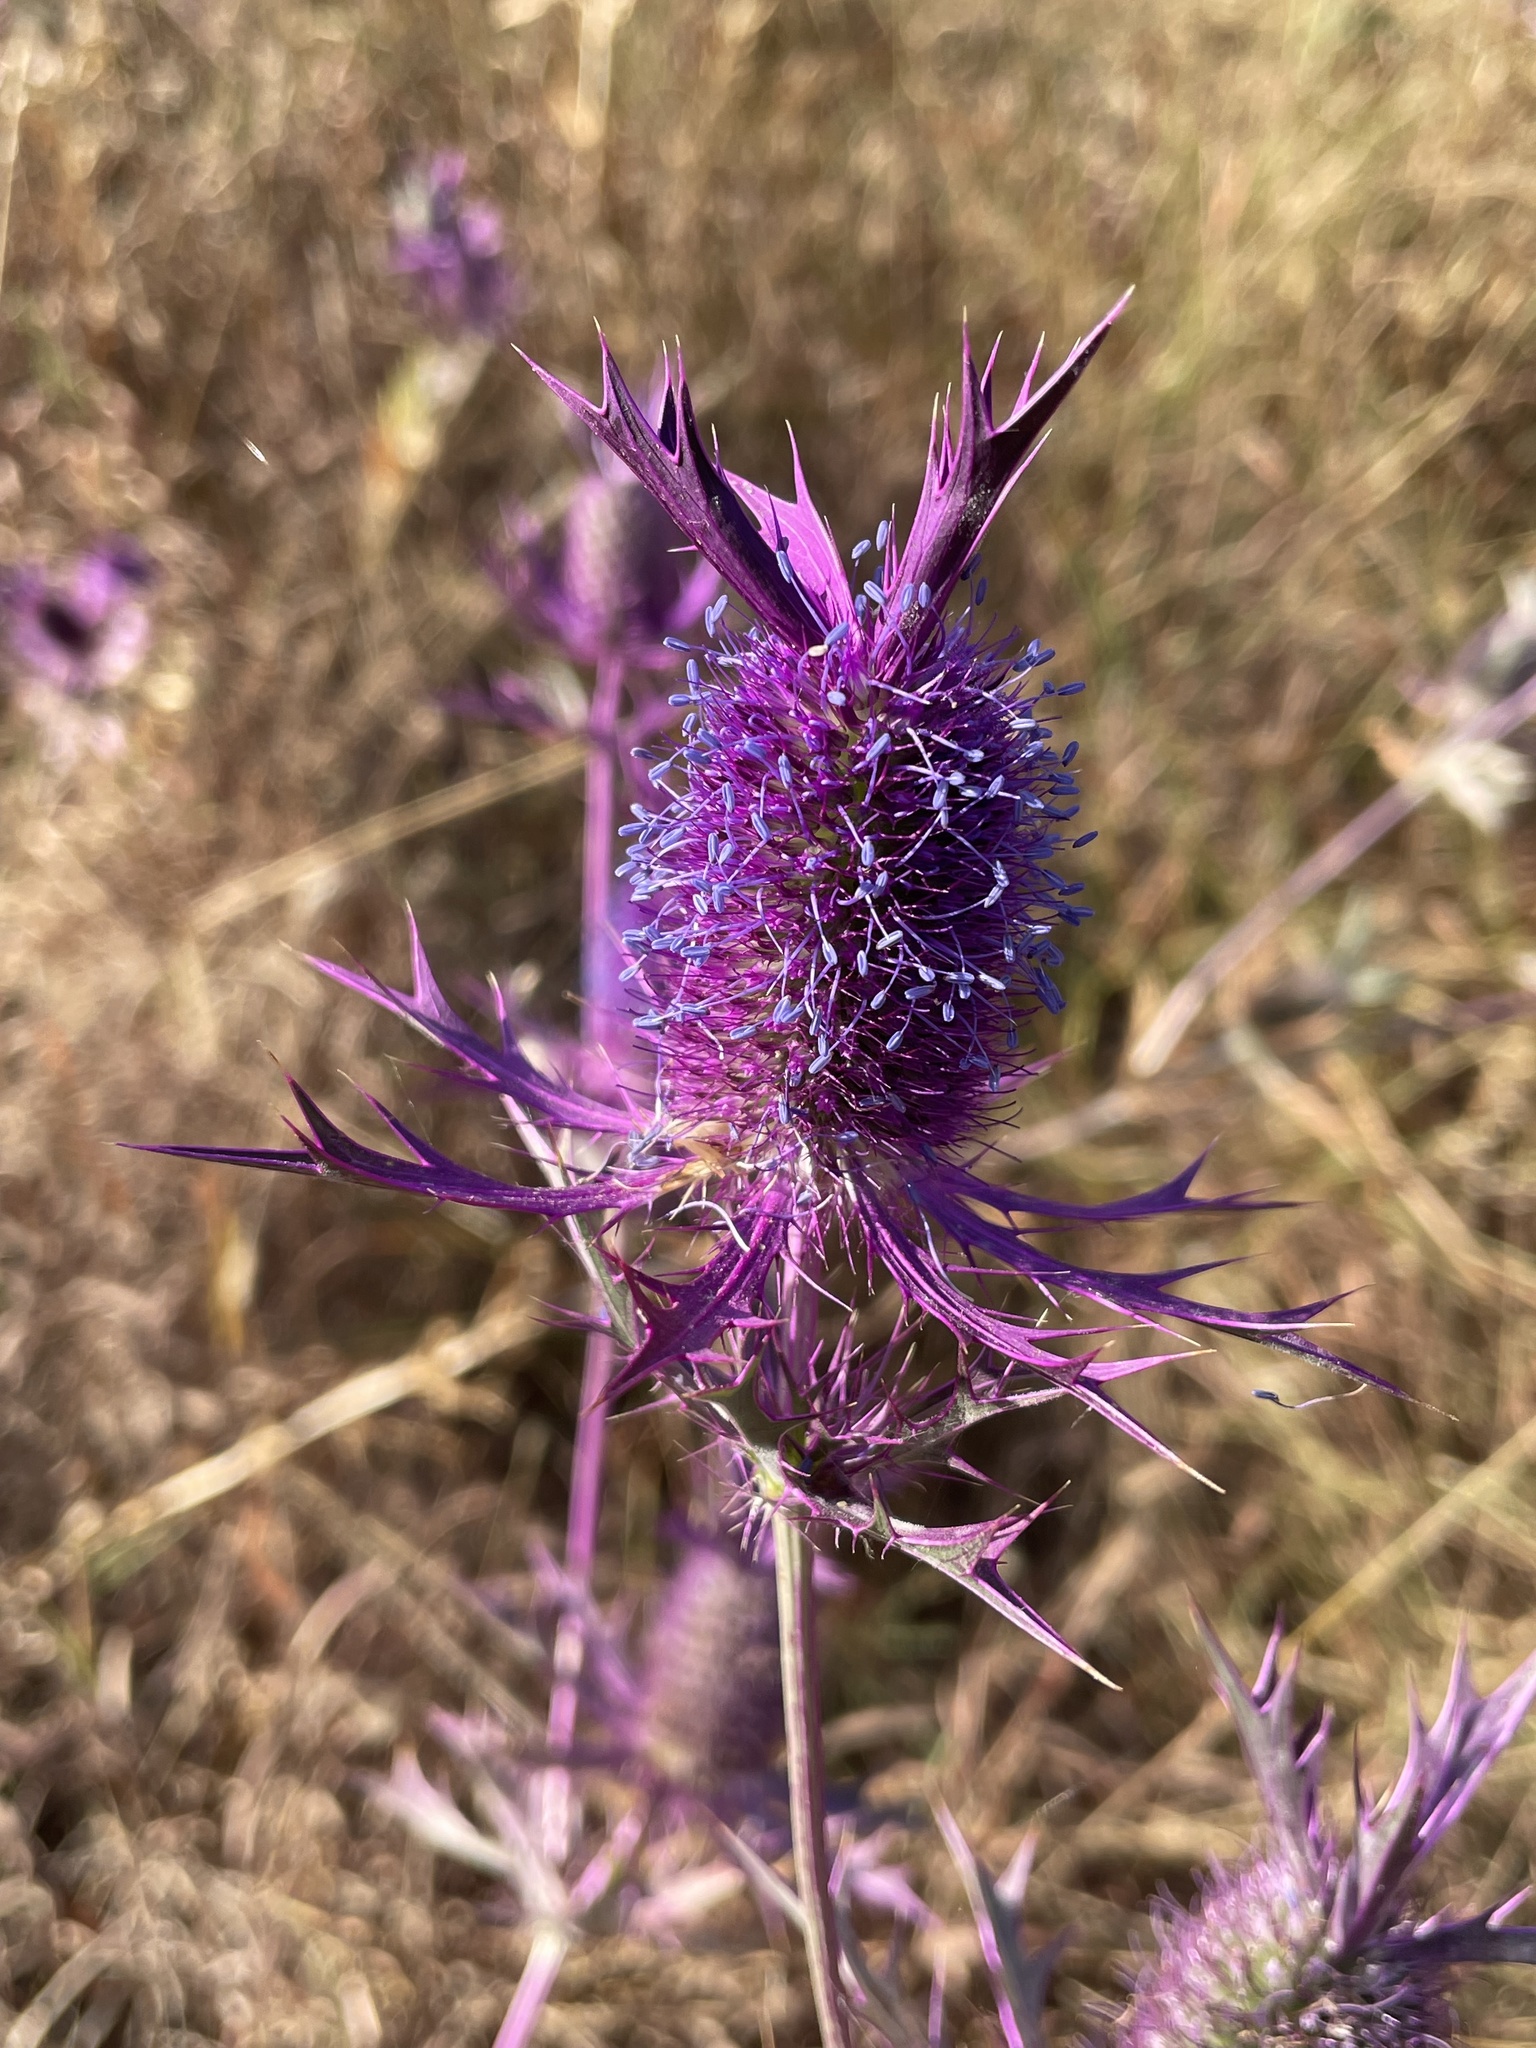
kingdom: Plantae
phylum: Tracheophyta
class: Magnoliopsida
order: Apiales
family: Apiaceae
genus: Eryngium
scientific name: Eryngium leavenworthii
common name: Leavenworth's eryngo
